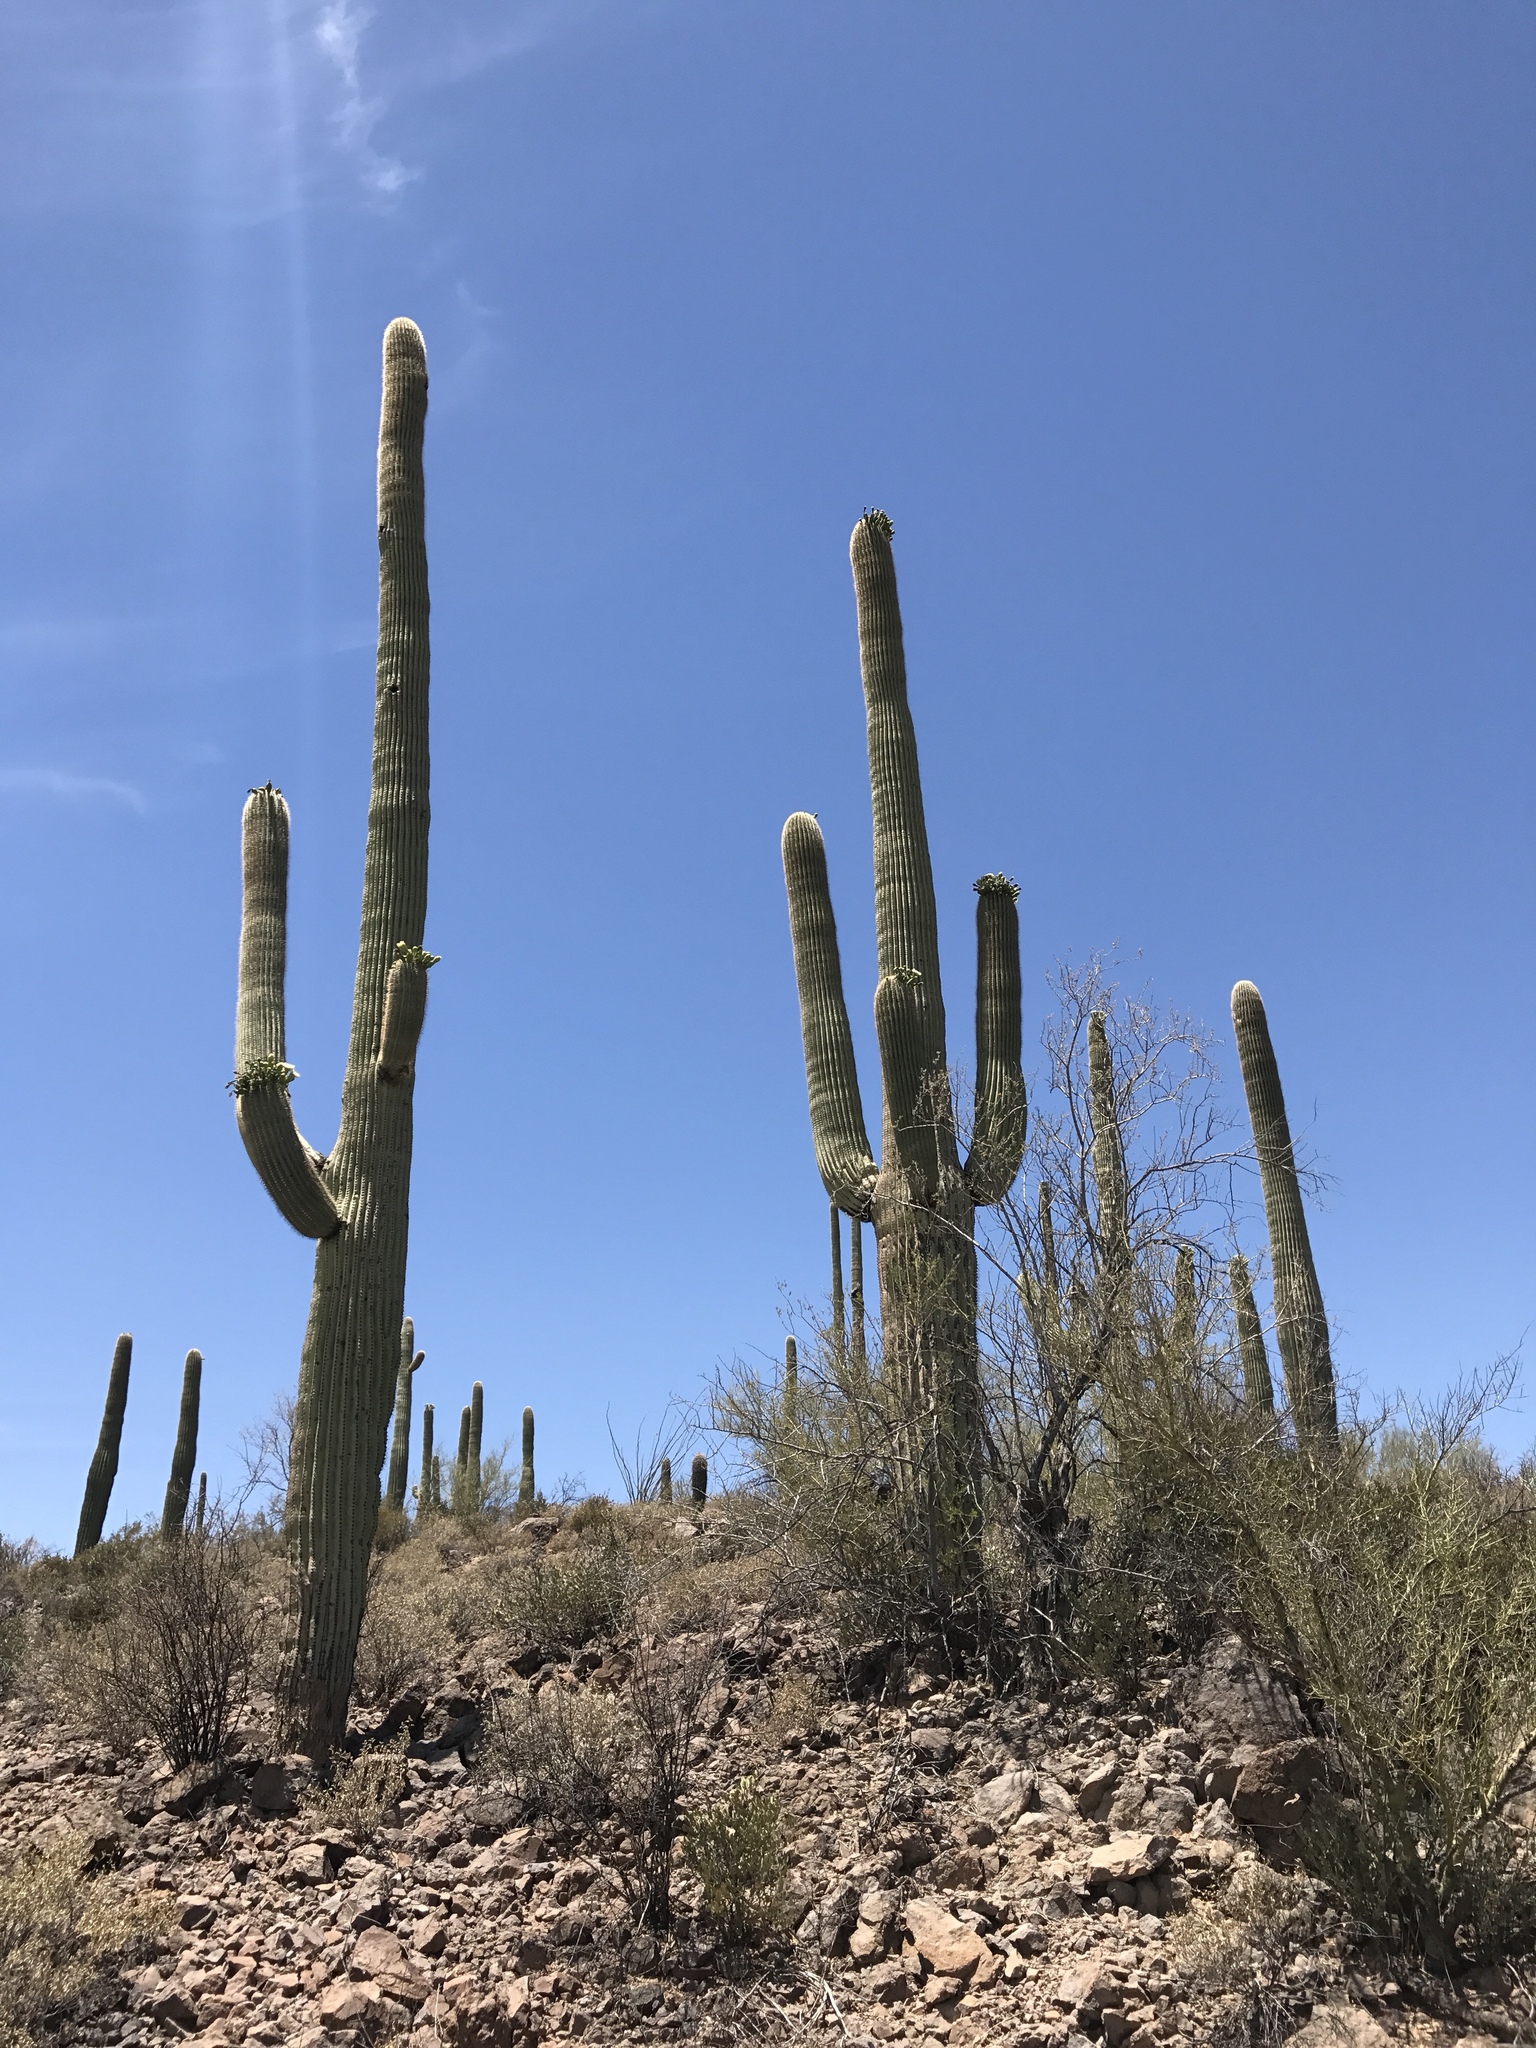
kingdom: Plantae
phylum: Tracheophyta
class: Magnoliopsida
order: Caryophyllales
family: Cactaceae
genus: Carnegiea
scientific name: Carnegiea gigantea
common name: Saguaro
